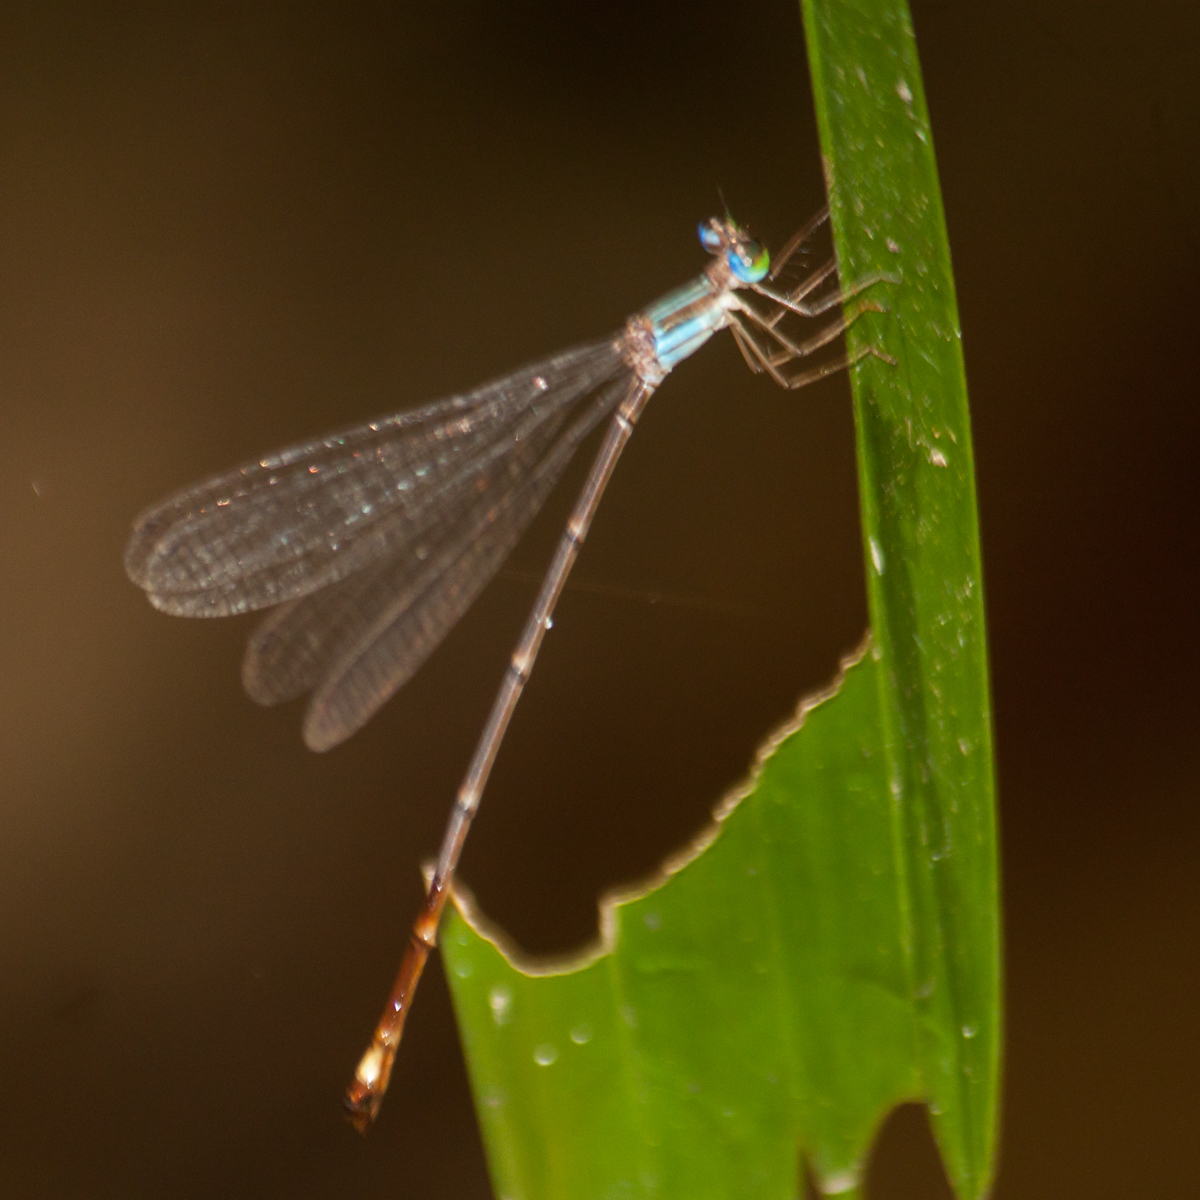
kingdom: Animalia
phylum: Arthropoda
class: Insecta
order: Odonata
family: Platycnemididae
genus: Coeliccia
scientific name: Coeliccia kazukoae
